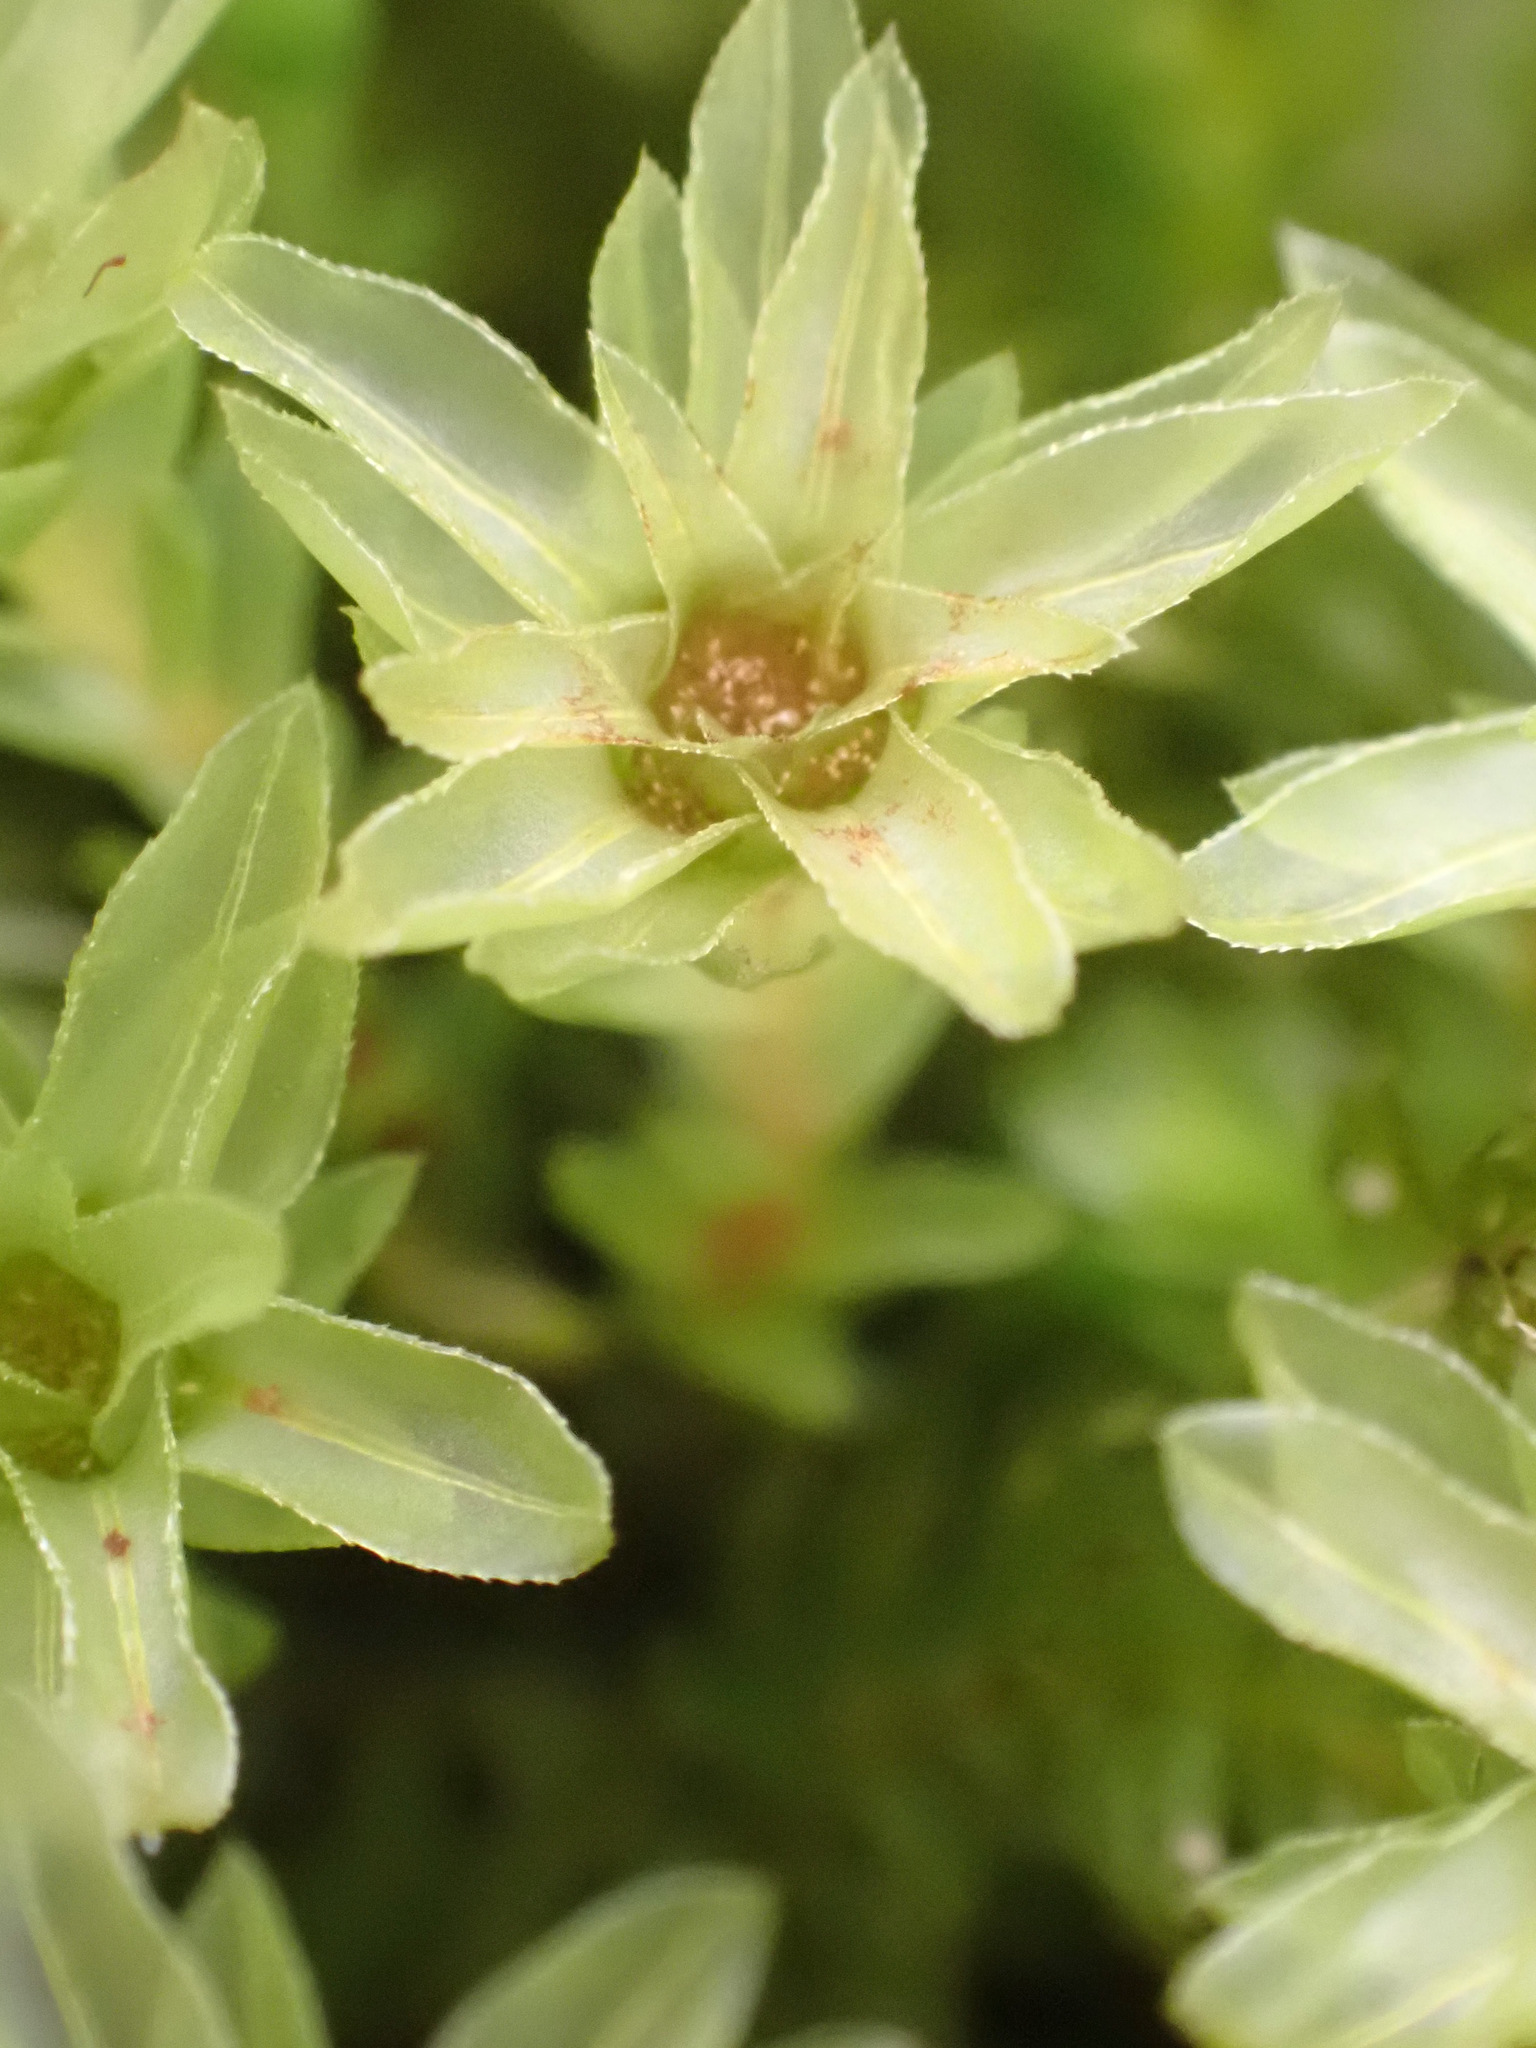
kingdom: Plantae
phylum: Bryophyta
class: Bryopsida
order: Bryales
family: Mniaceae
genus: Mnium
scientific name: Mnium hornum
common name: Swan's-neck leafy moss
